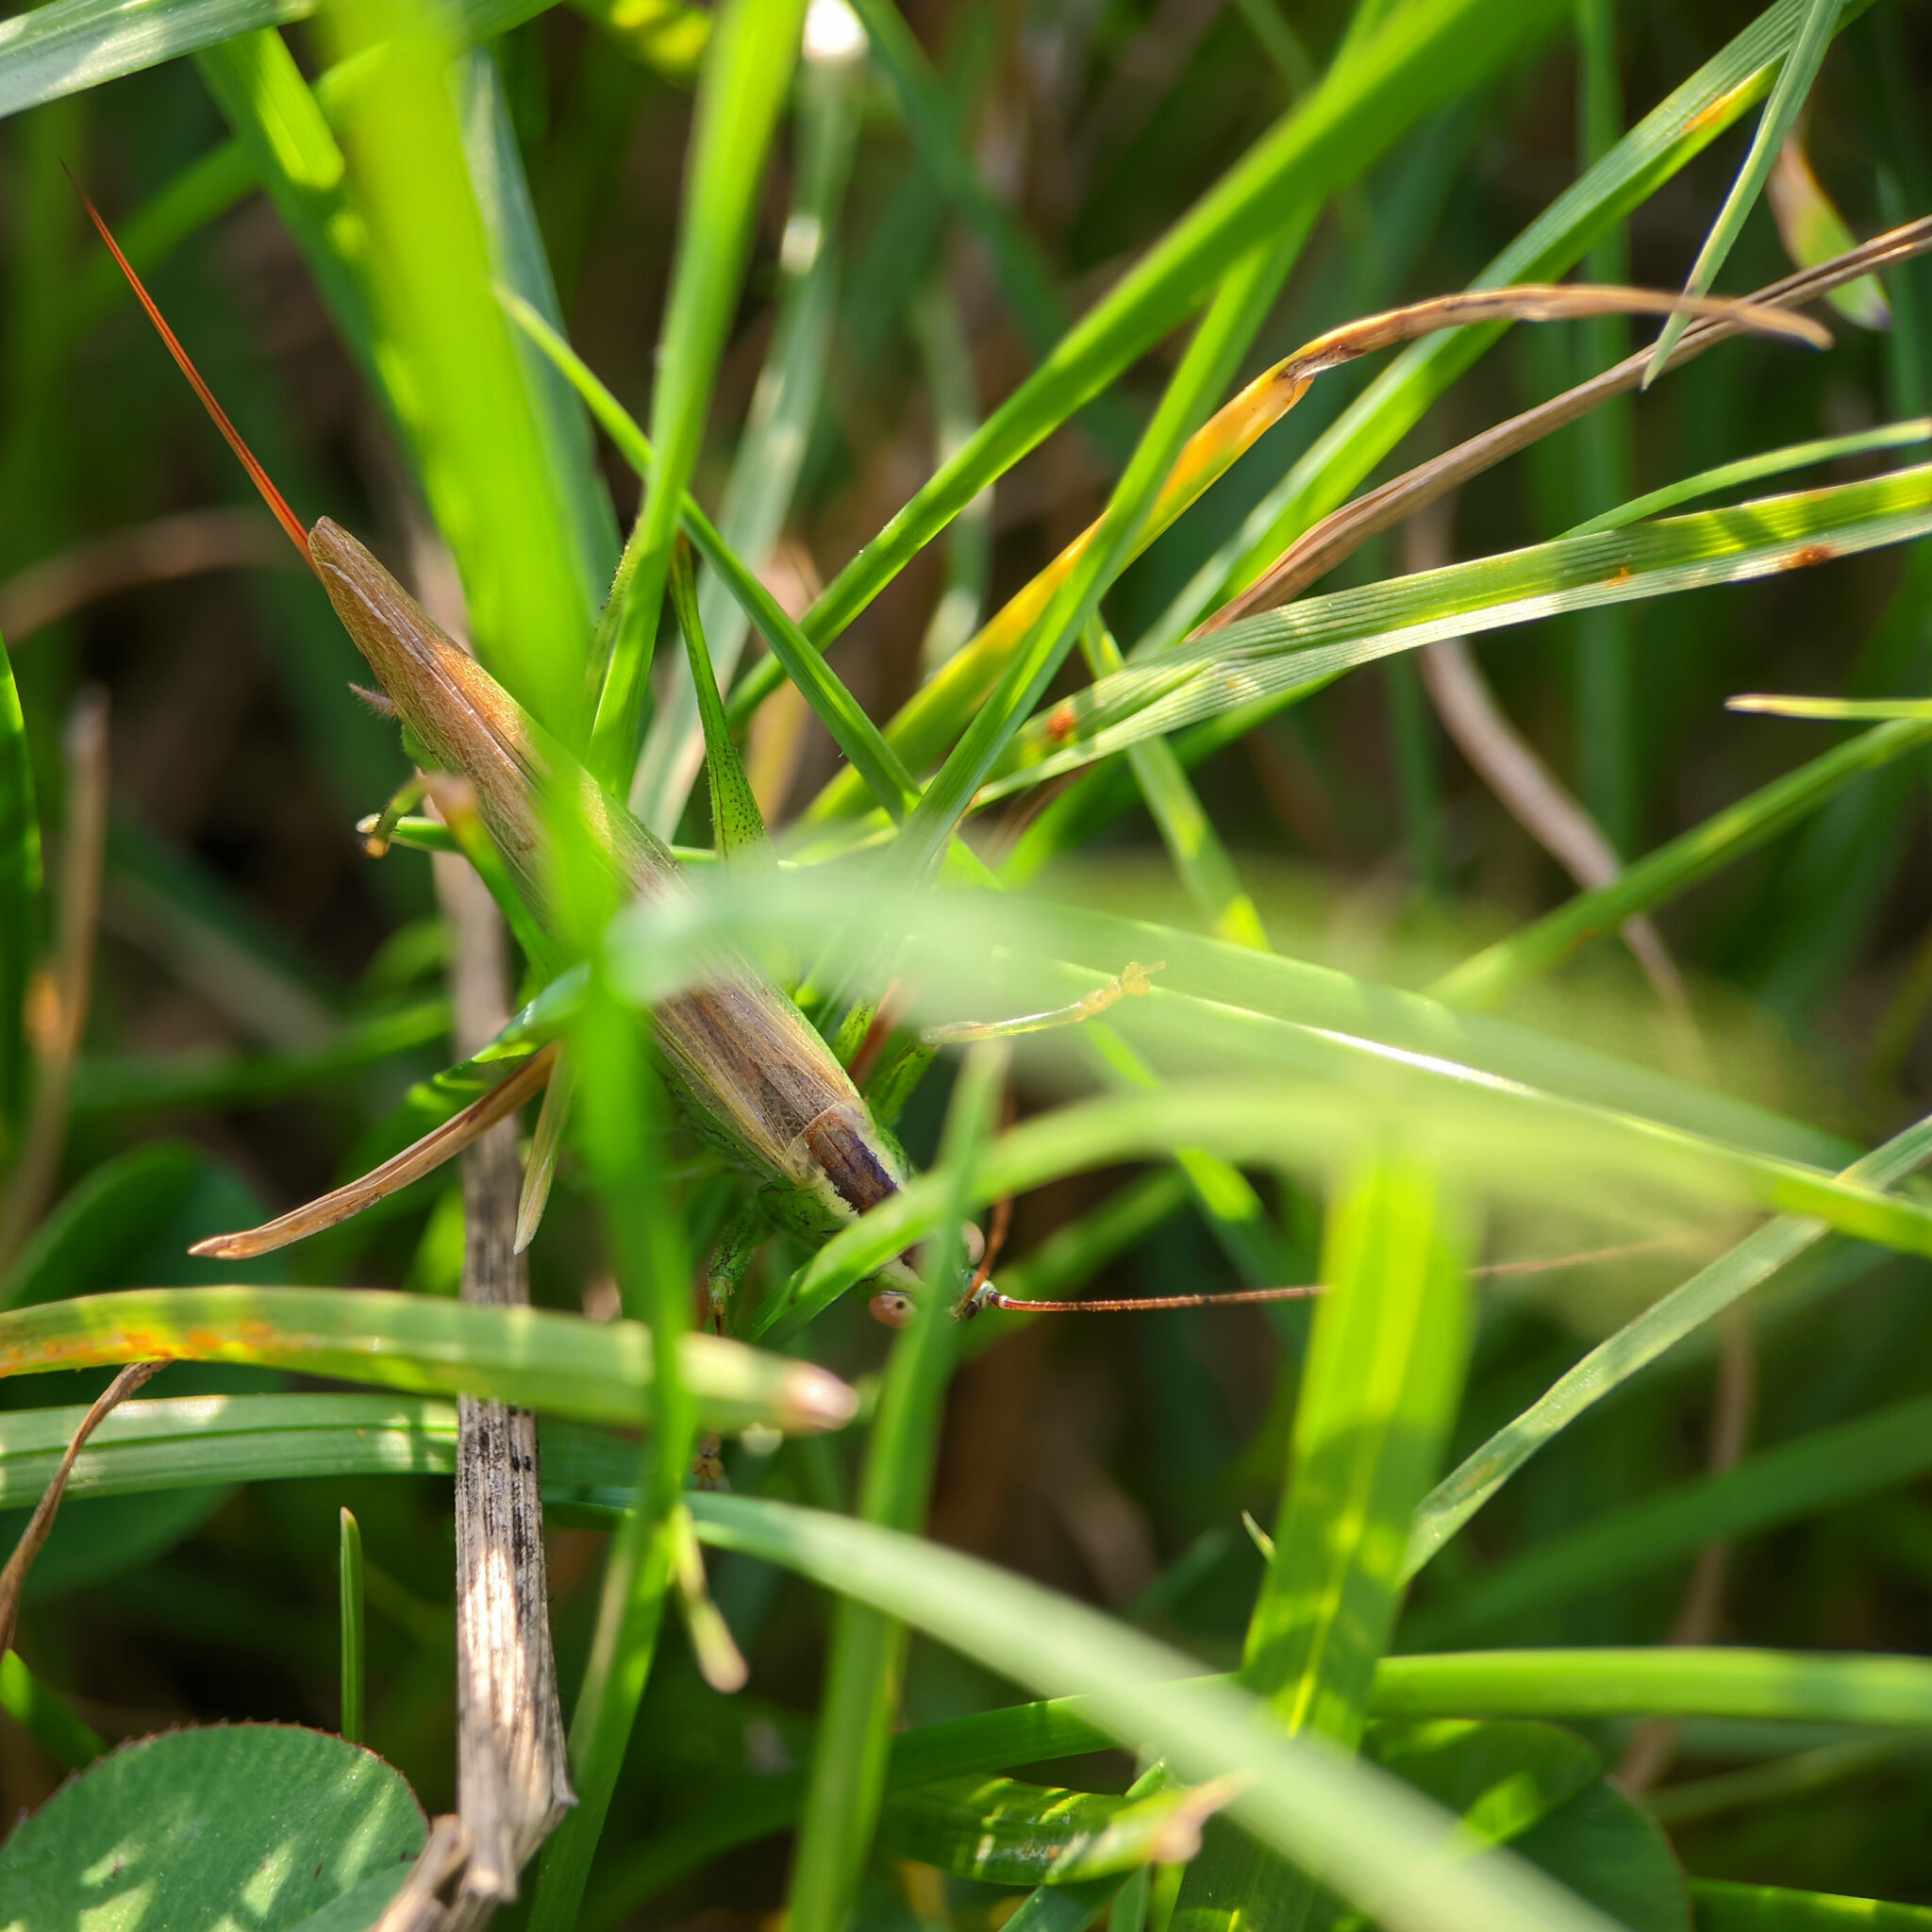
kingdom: Animalia
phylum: Arthropoda
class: Insecta
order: Orthoptera
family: Tettigoniidae
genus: Conocephalus
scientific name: Conocephalus fuscus
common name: Long-winged conehead
